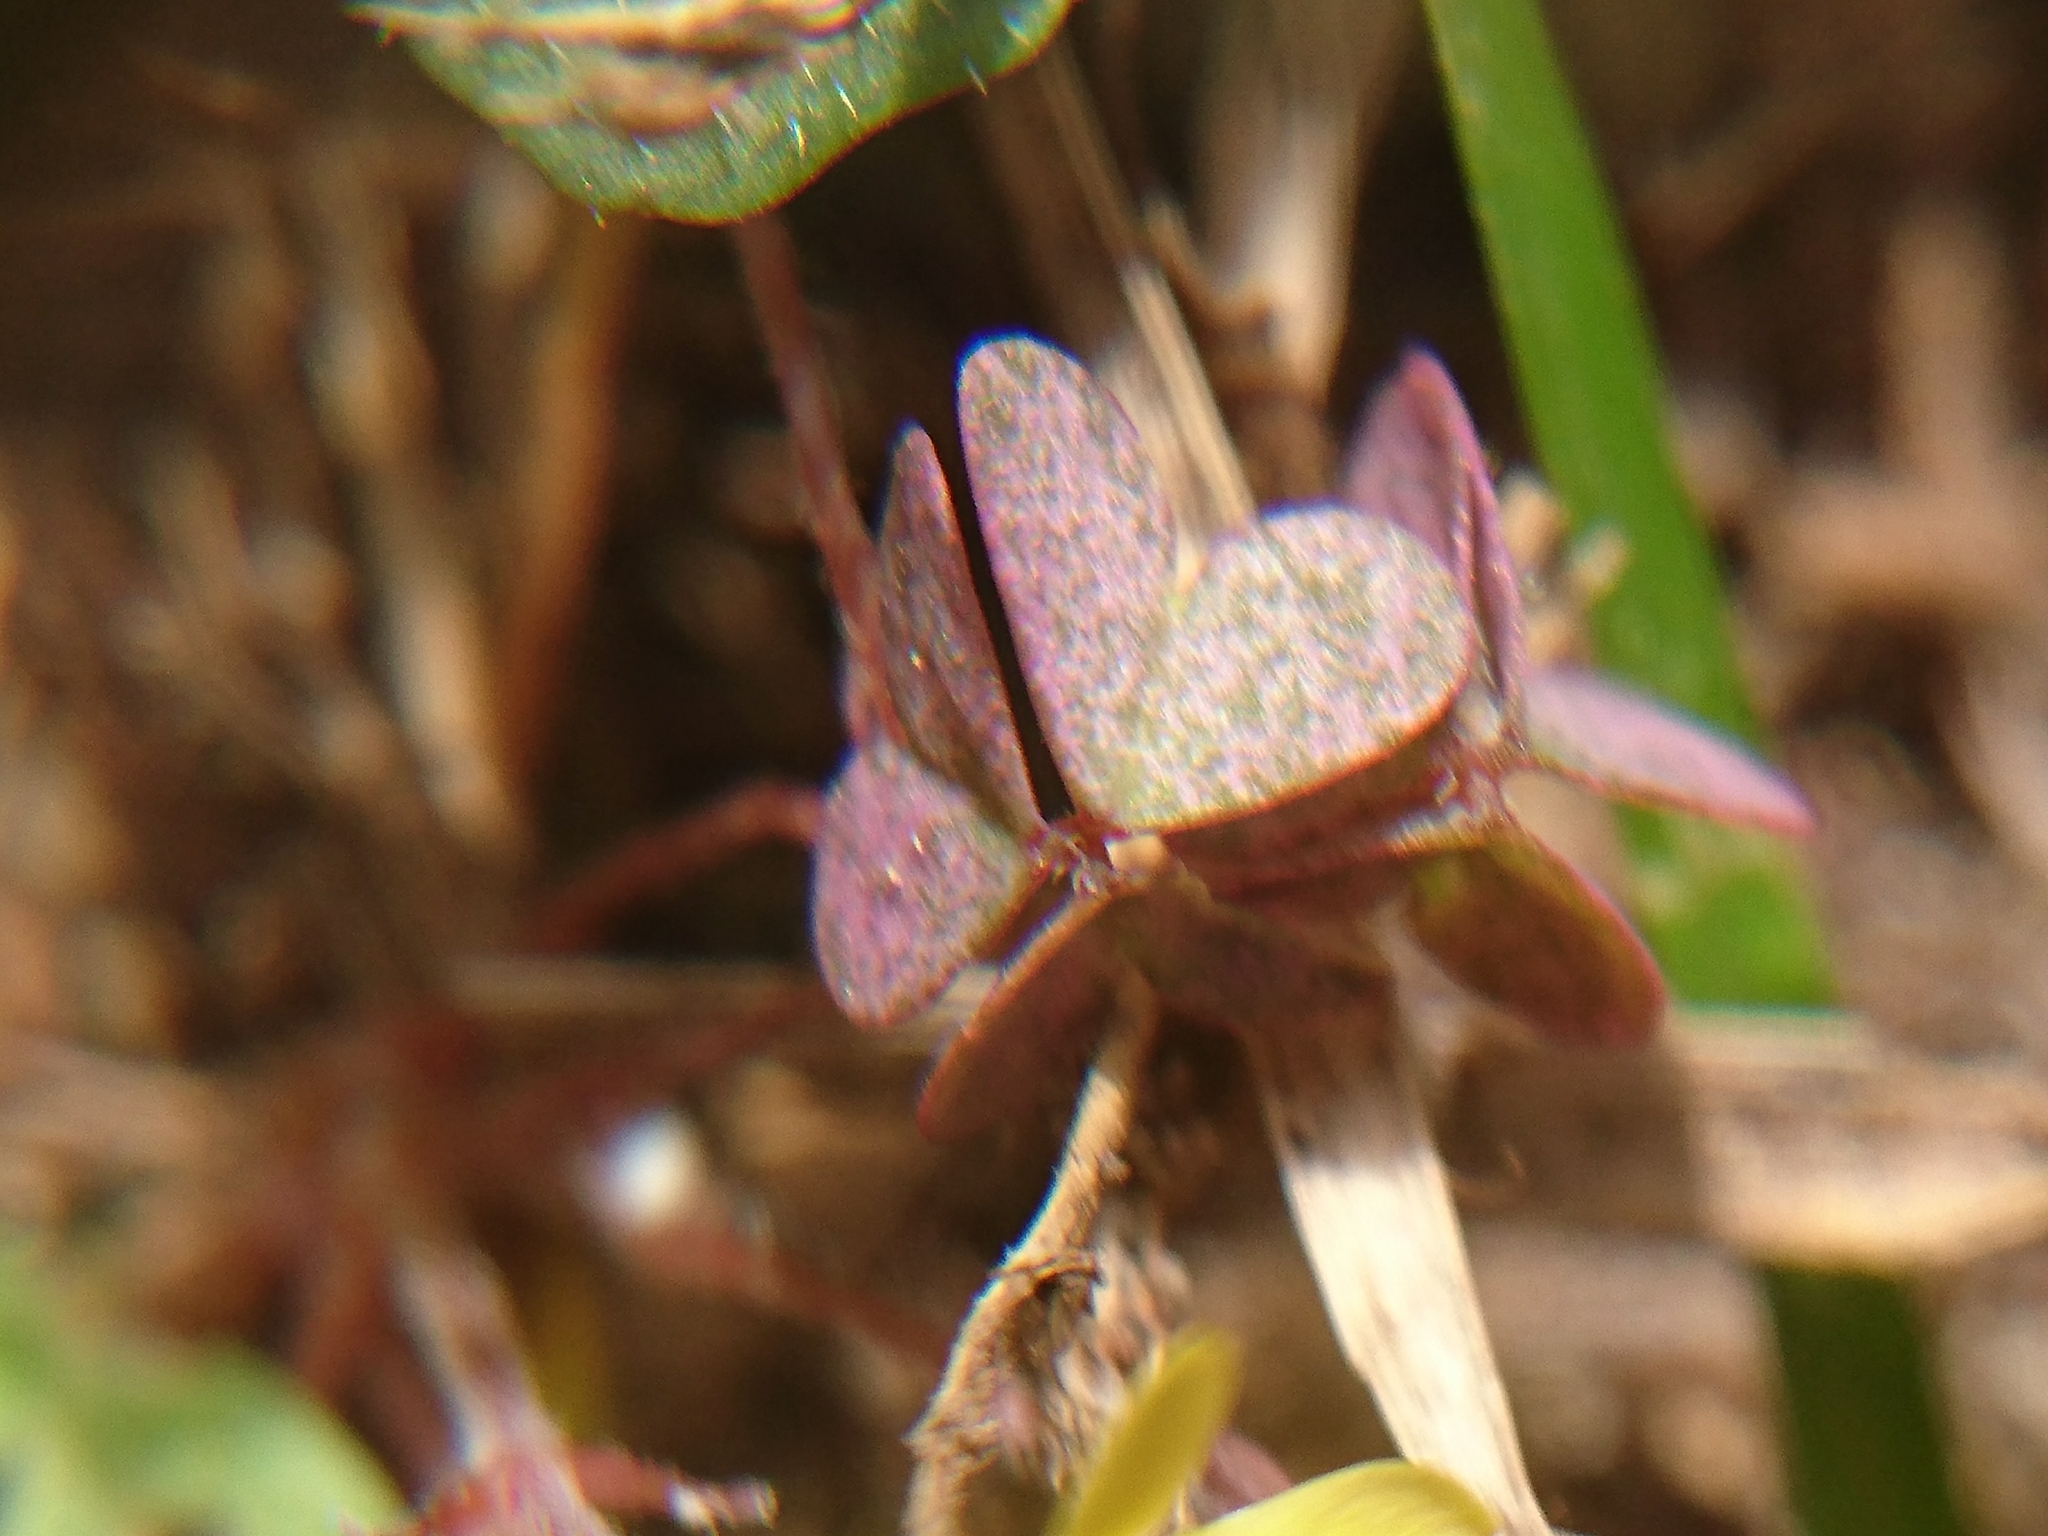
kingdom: Plantae
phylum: Tracheophyta
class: Magnoliopsida
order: Oxalidales
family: Oxalidaceae
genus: Oxalis
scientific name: Oxalis corniculata
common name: Procumbent yellow-sorrel
